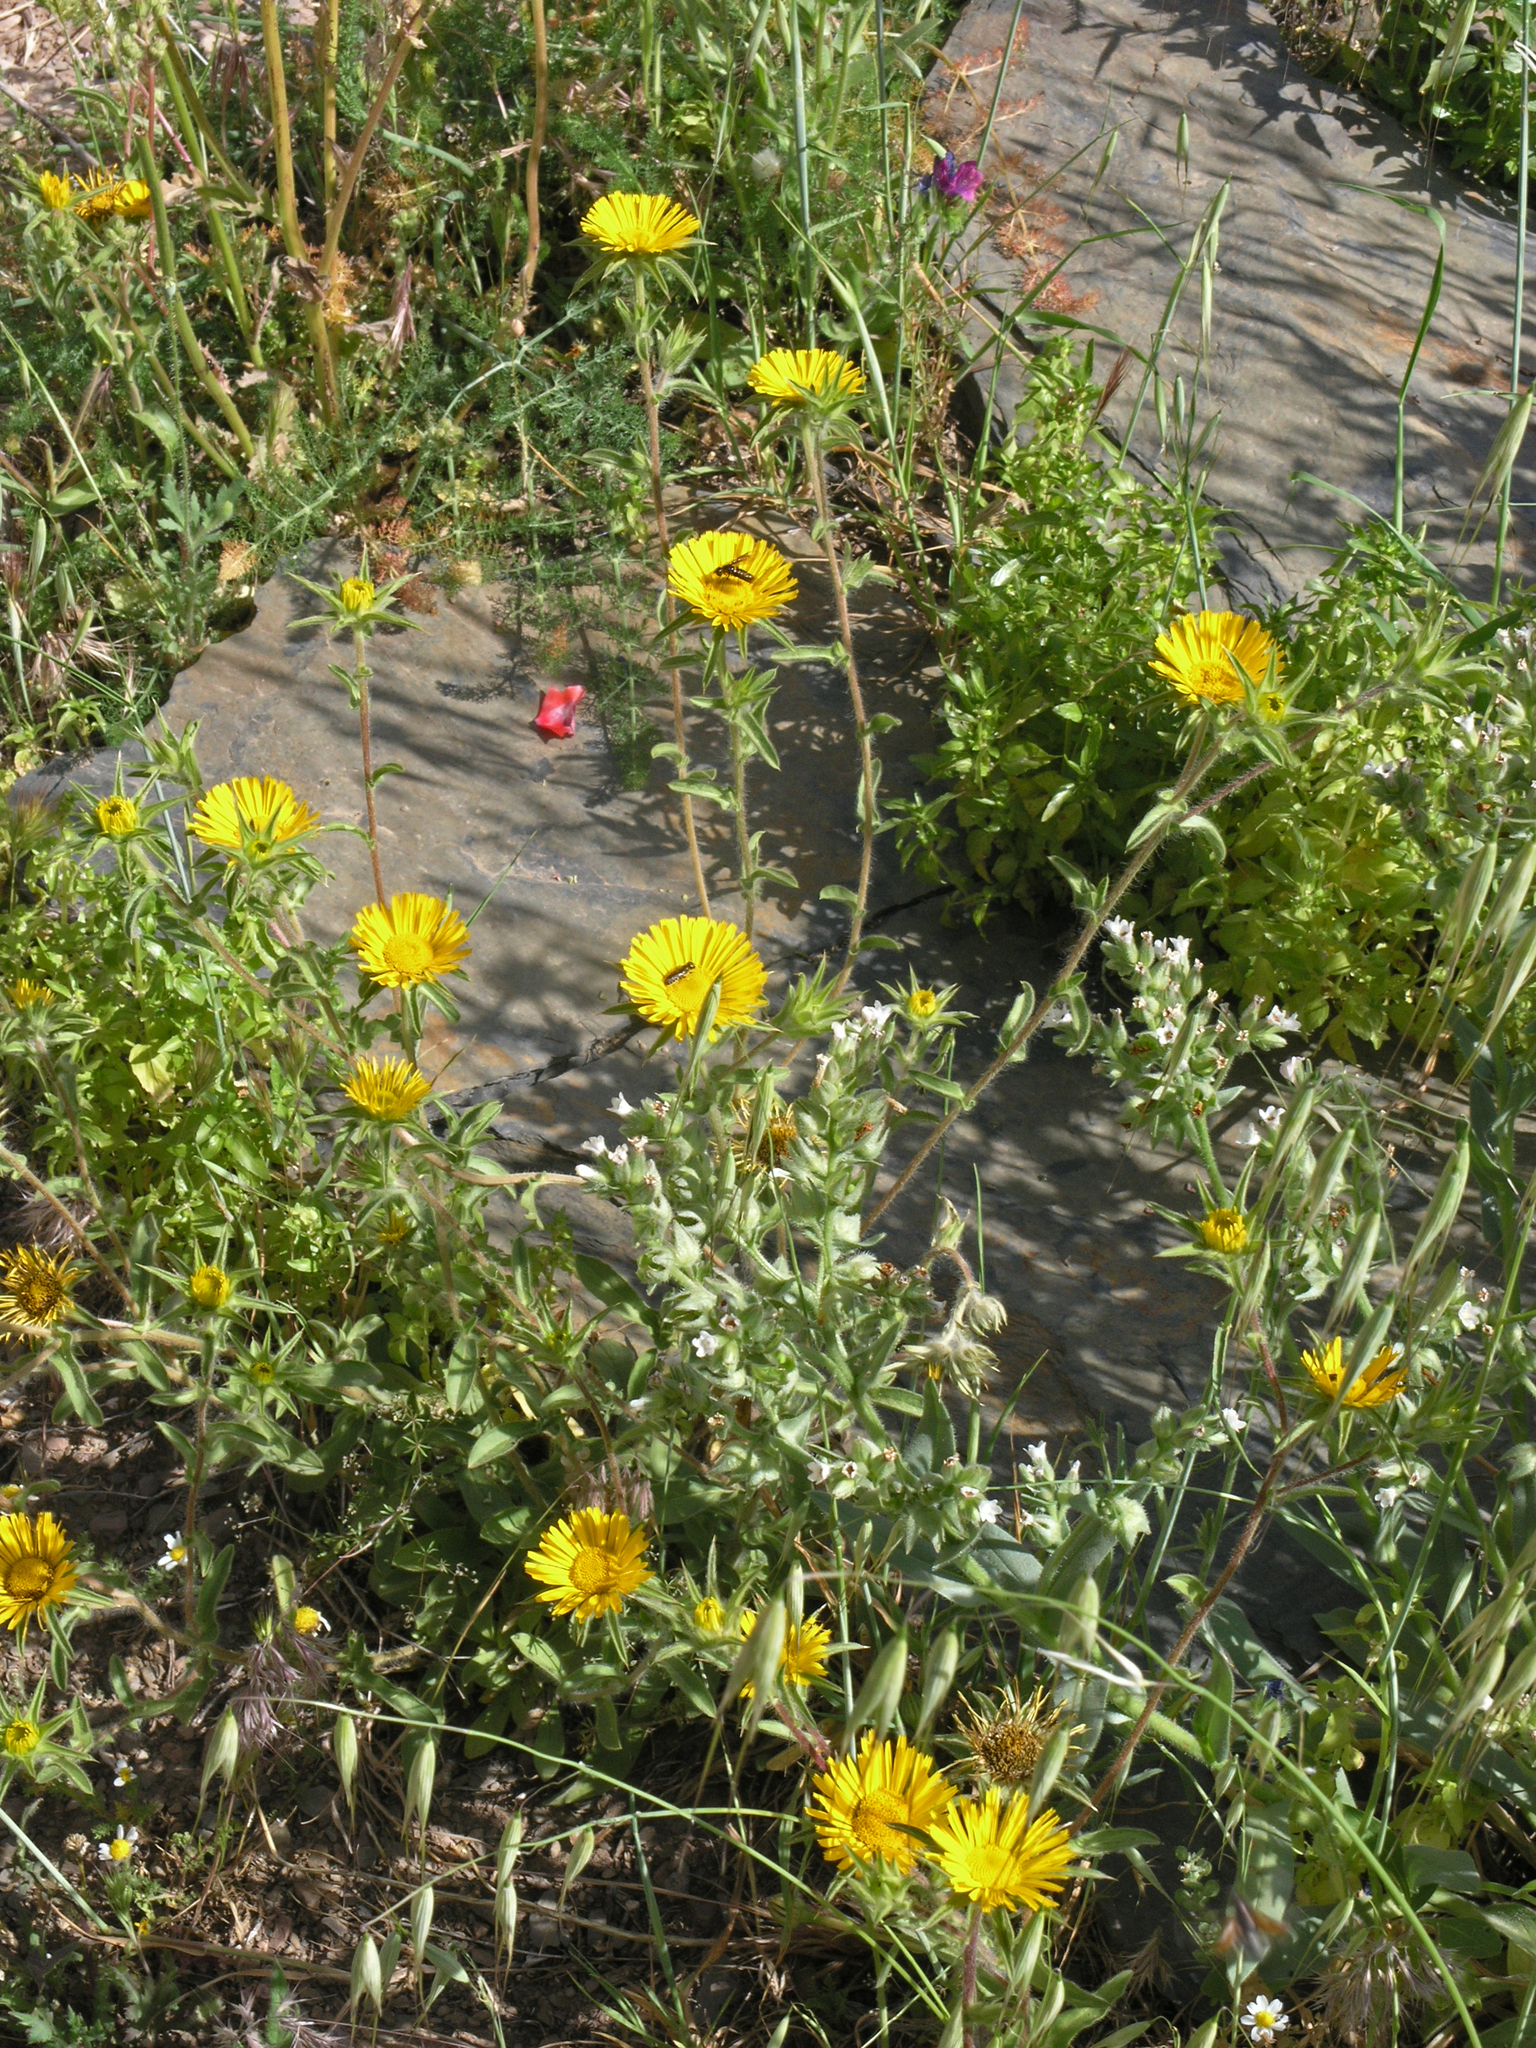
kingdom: Plantae
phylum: Tracheophyta
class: Magnoliopsida
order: Asterales
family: Asteraceae
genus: Pallenis
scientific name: Pallenis spinosa
